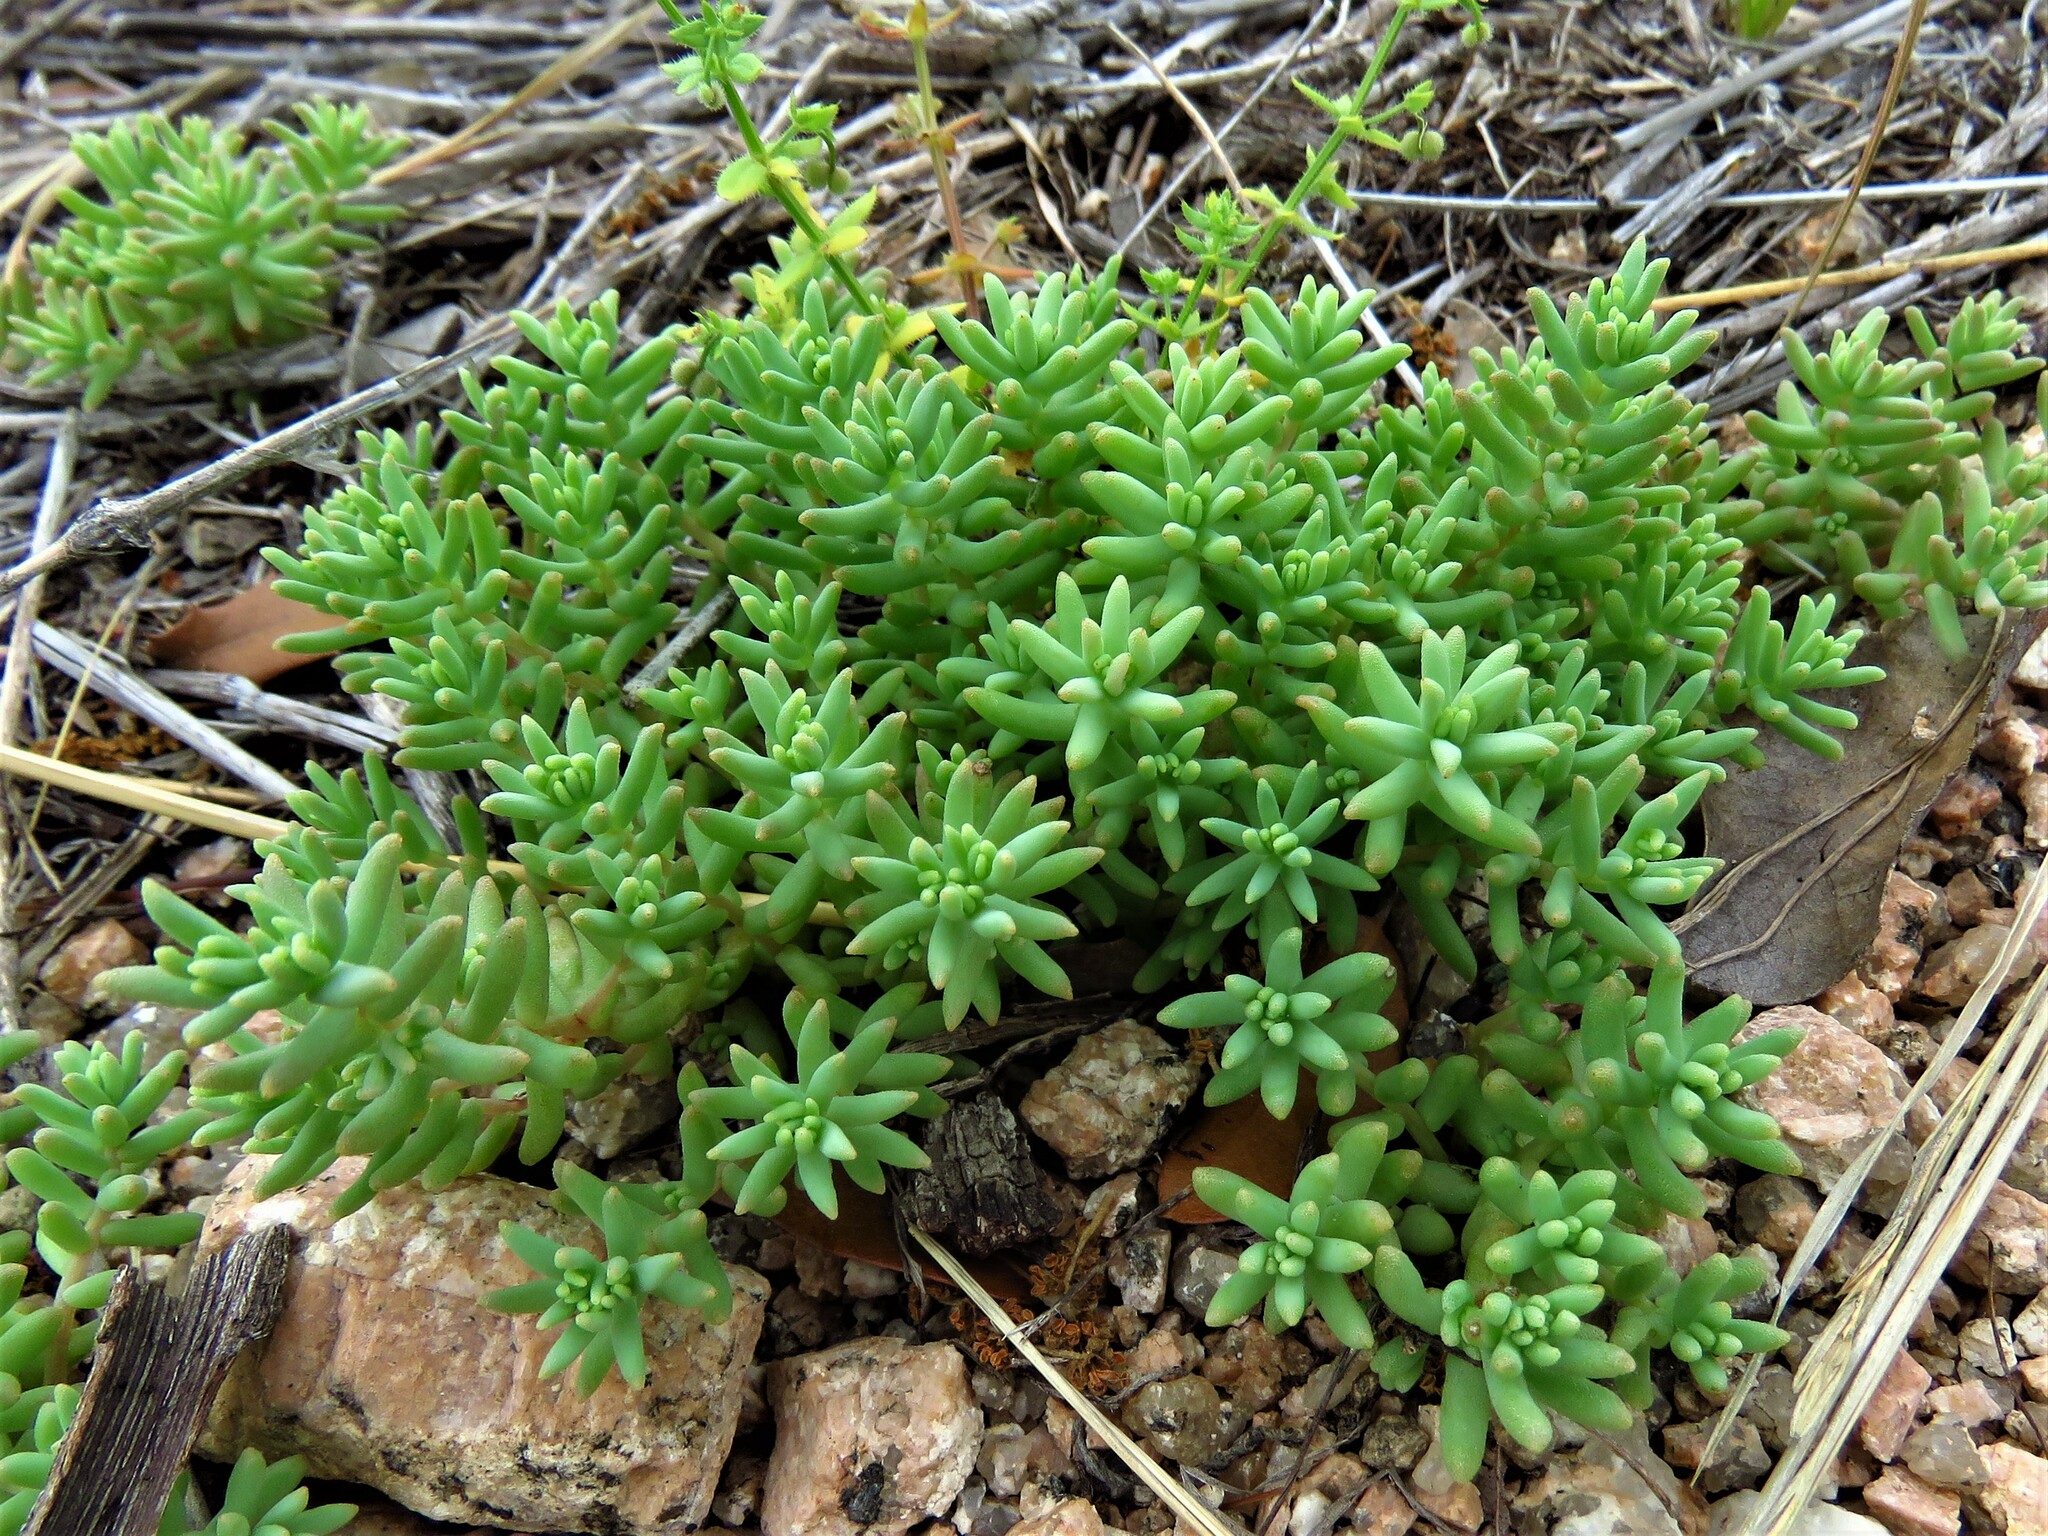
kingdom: Plantae
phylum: Tracheophyta
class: Magnoliopsida
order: Saxifragales
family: Crassulaceae
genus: Sedum
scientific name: Sedum nuttallii
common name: Yellow stonecrop
